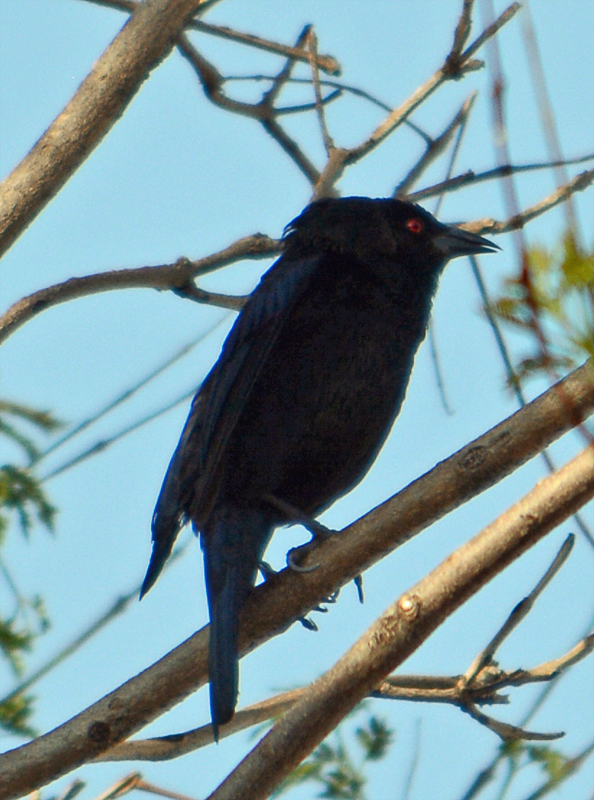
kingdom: Animalia
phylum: Chordata
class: Aves
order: Passeriformes
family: Icteridae
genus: Molothrus
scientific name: Molothrus aeneus
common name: Bronzed cowbird
